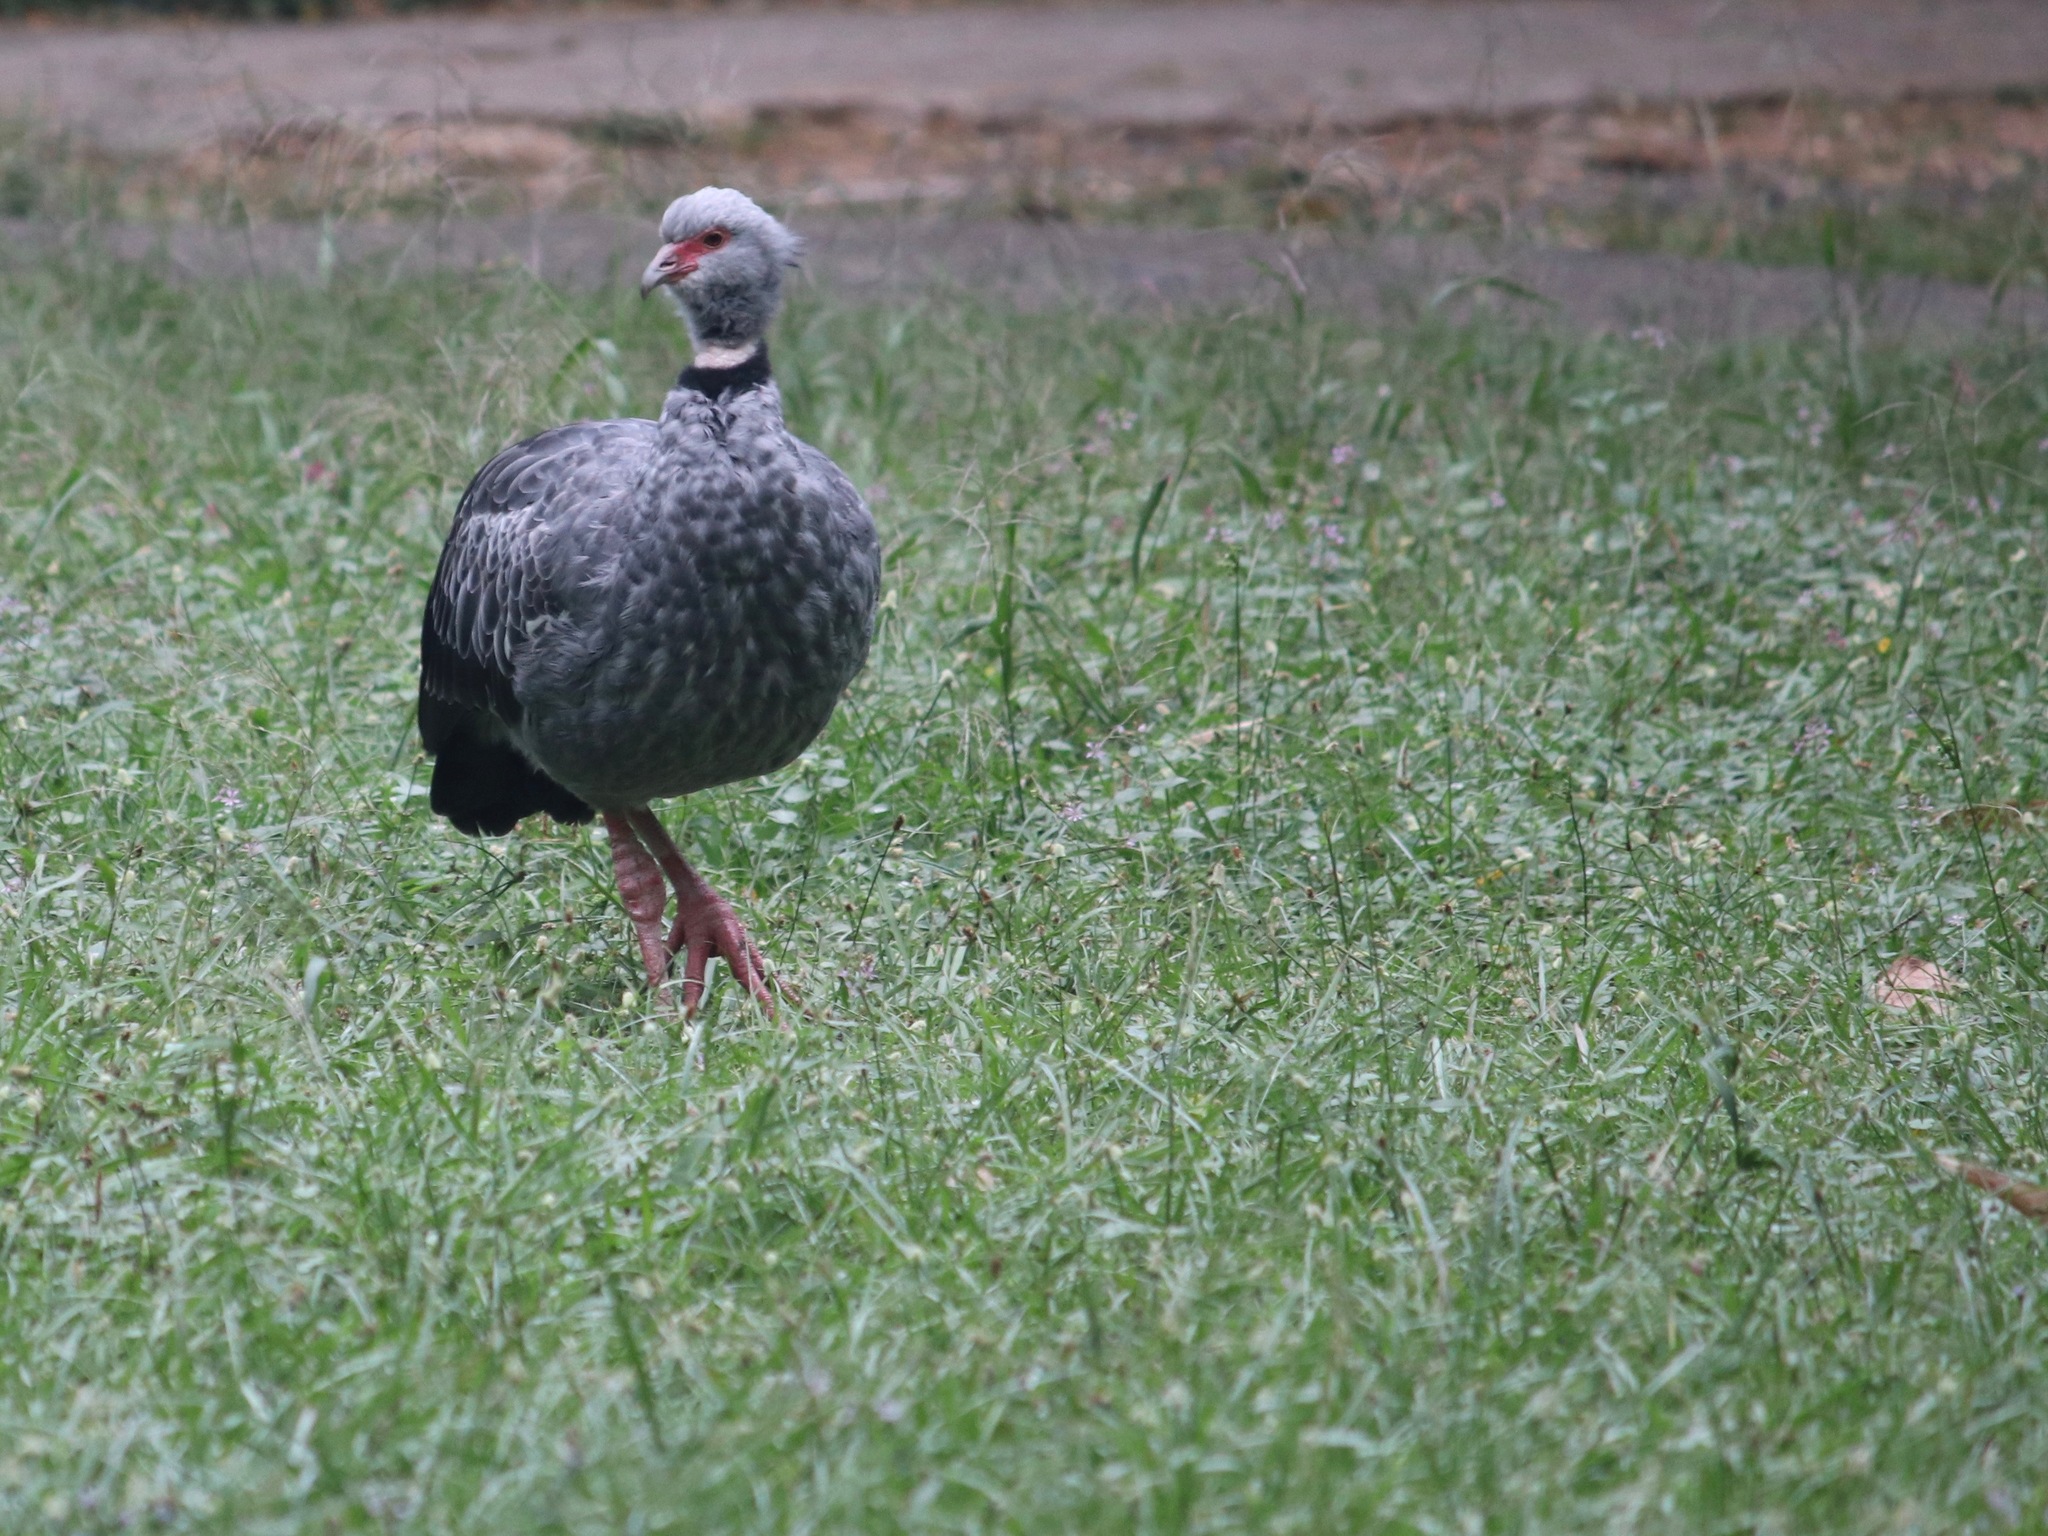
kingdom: Animalia
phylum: Chordata
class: Aves
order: Anseriformes
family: Anhimidae
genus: Chauna
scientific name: Chauna torquata
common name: Southern screamer
